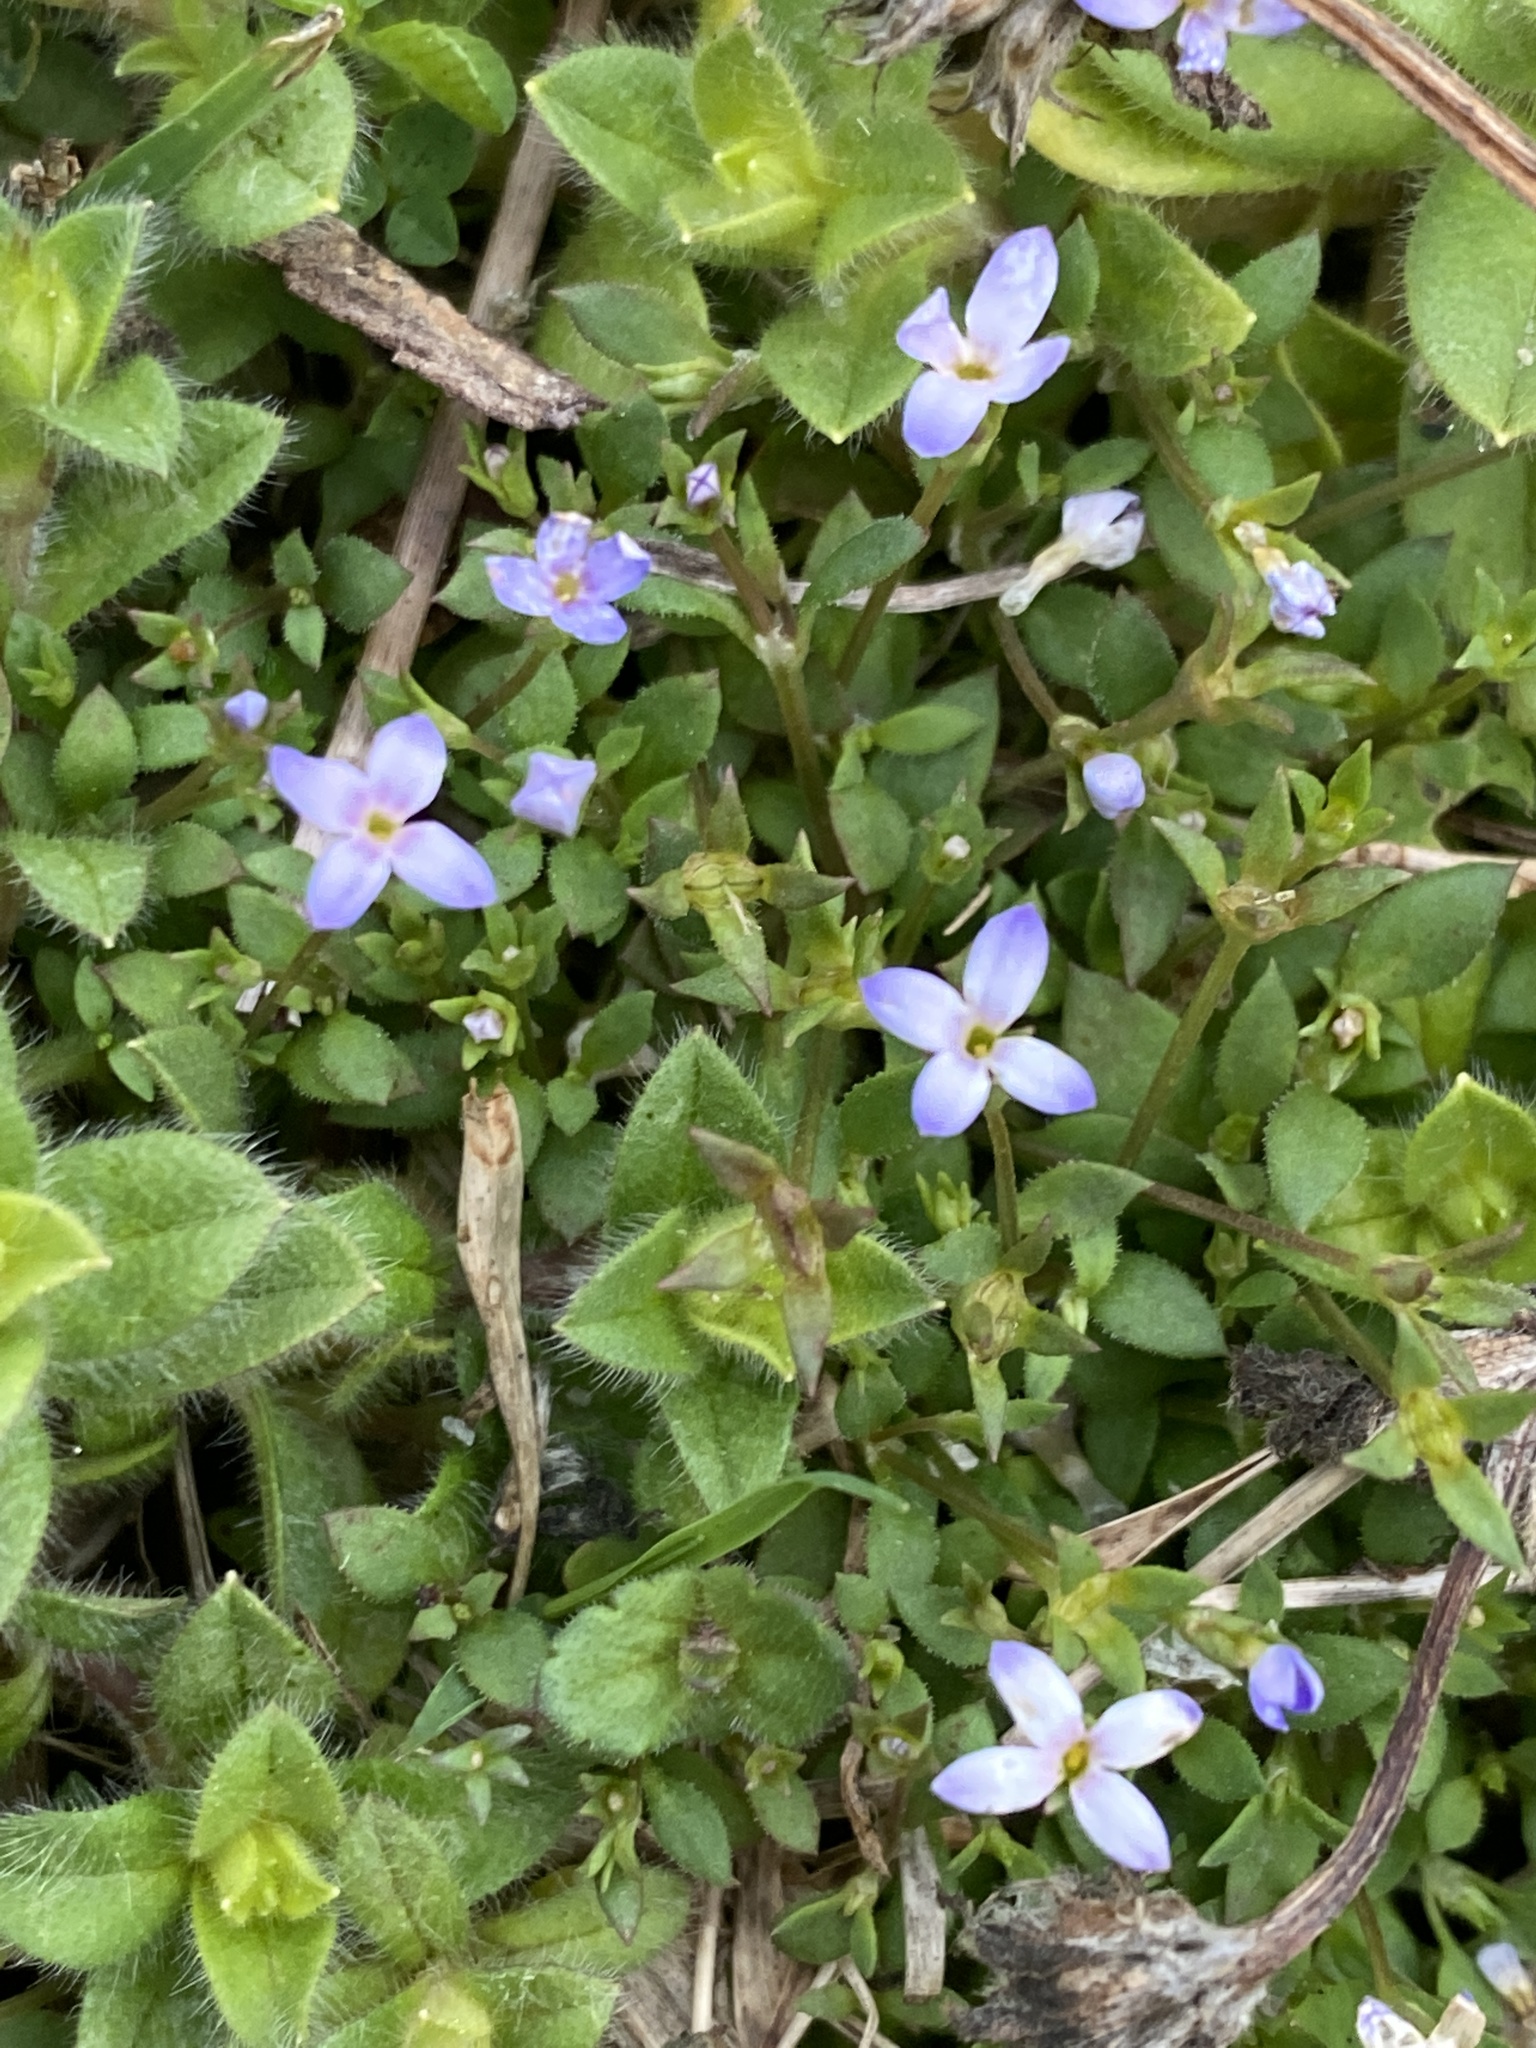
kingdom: Plantae
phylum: Tracheophyta
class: Magnoliopsida
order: Gentianales
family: Rubiaceae
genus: Houstonia
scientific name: Houstonia pusilla
